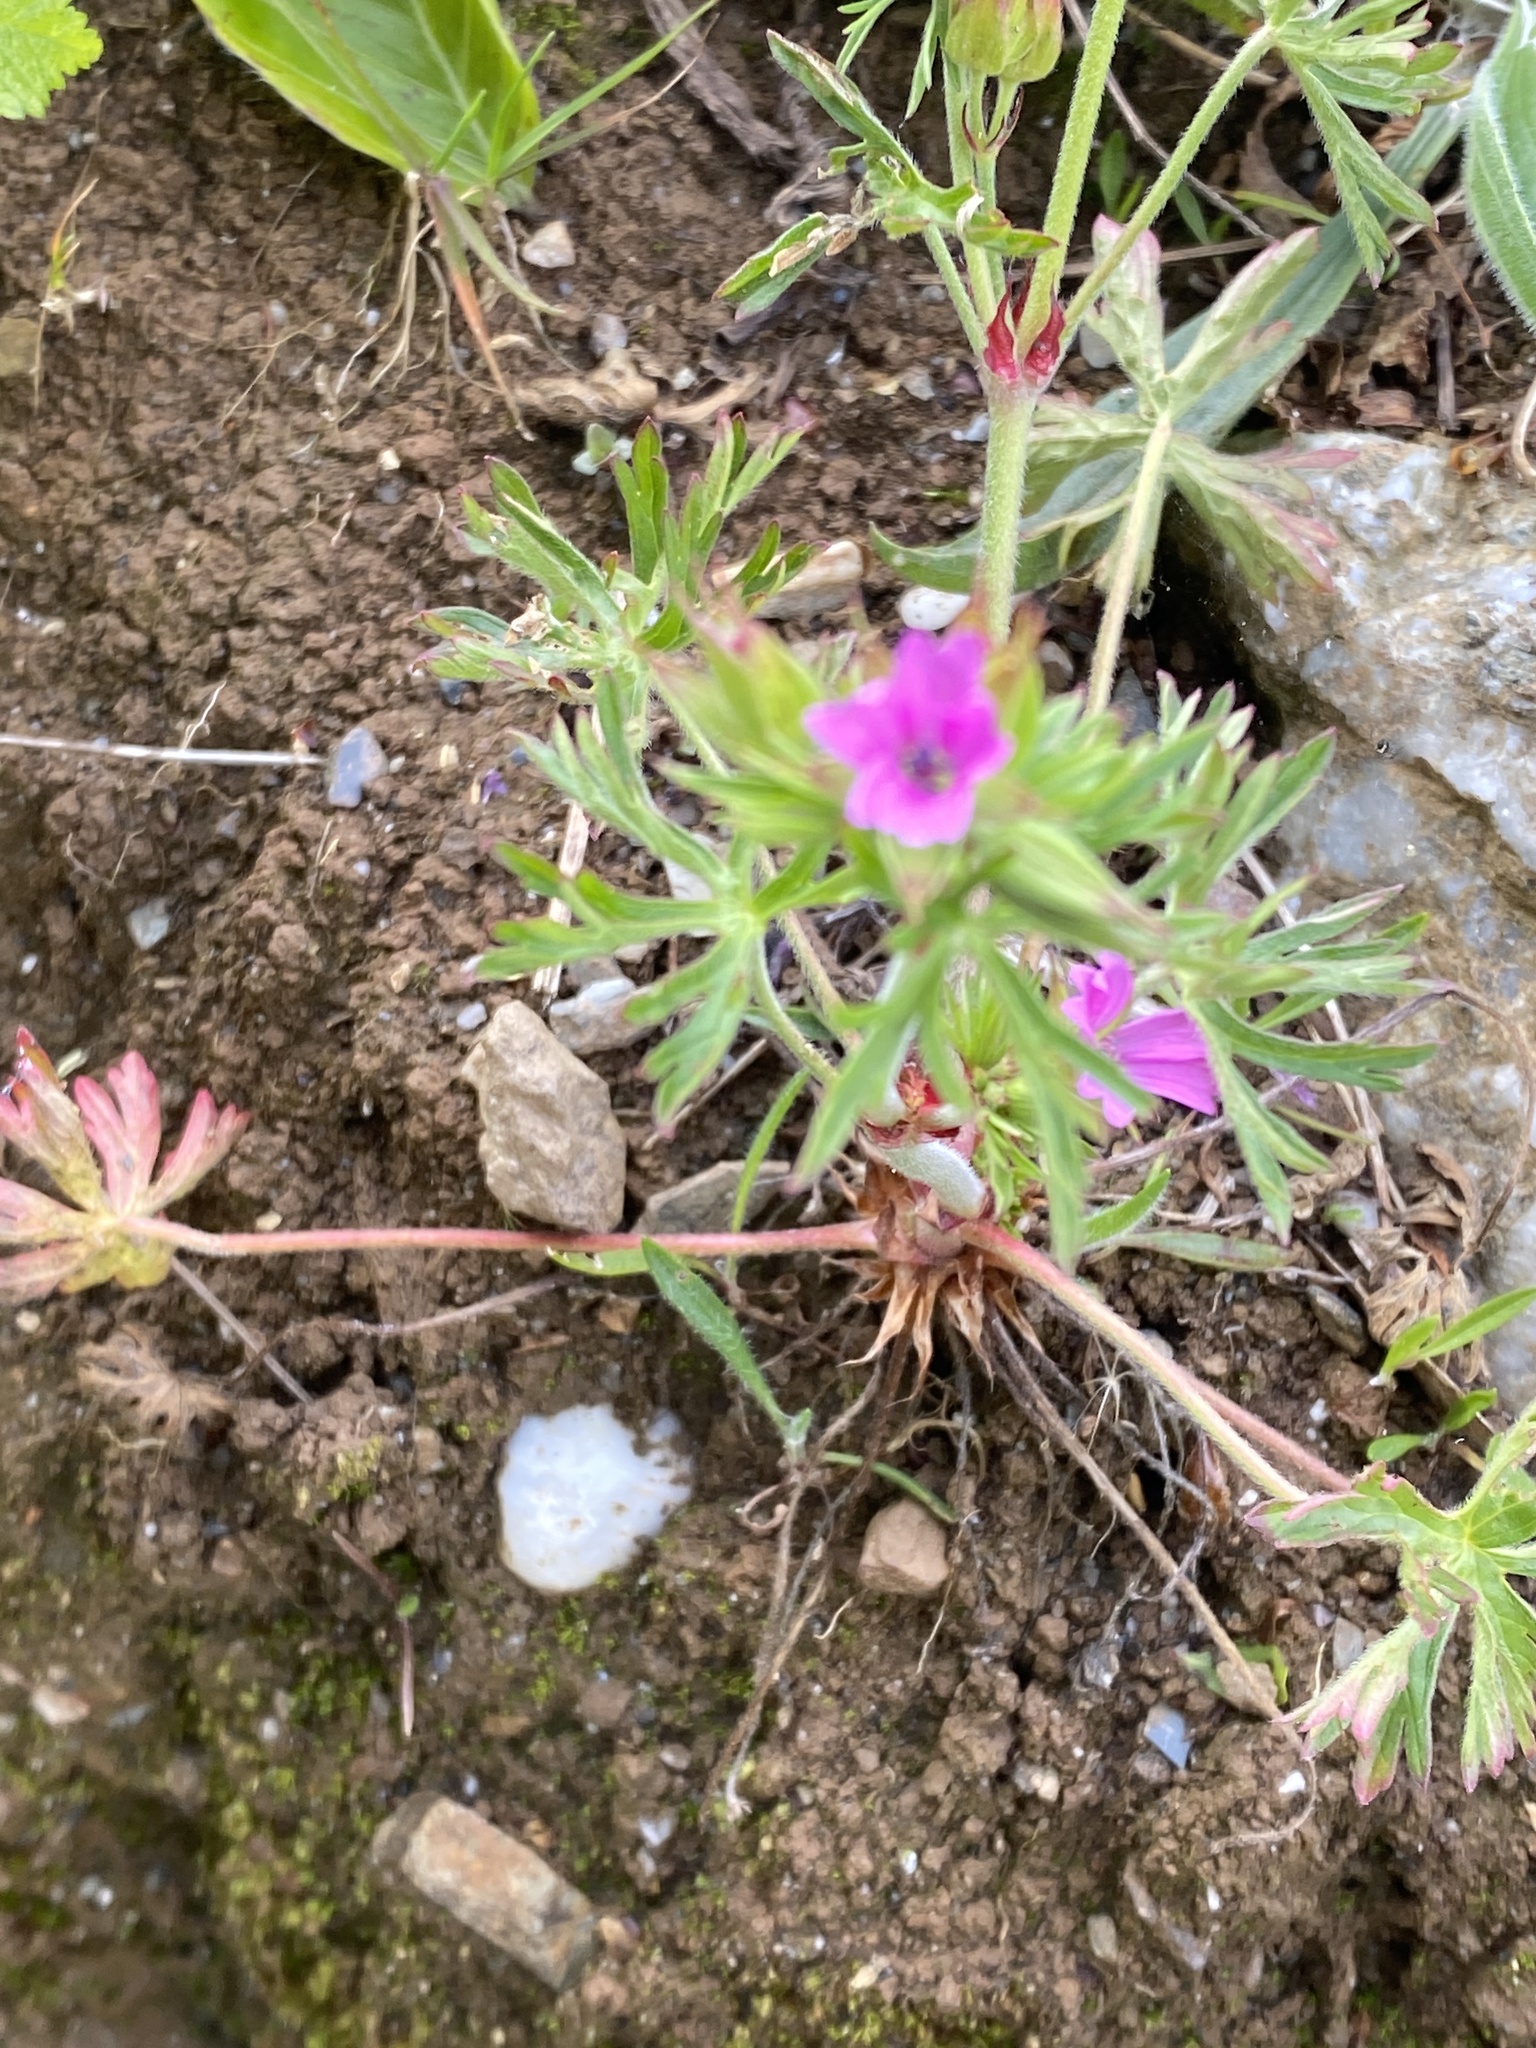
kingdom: Plantae
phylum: Tracheophyta
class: Magnoliopsida
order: Geraniales
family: Geraniaceae
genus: Geranium
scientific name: Geranium dissectum
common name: Cut-leaved crane's-bill
